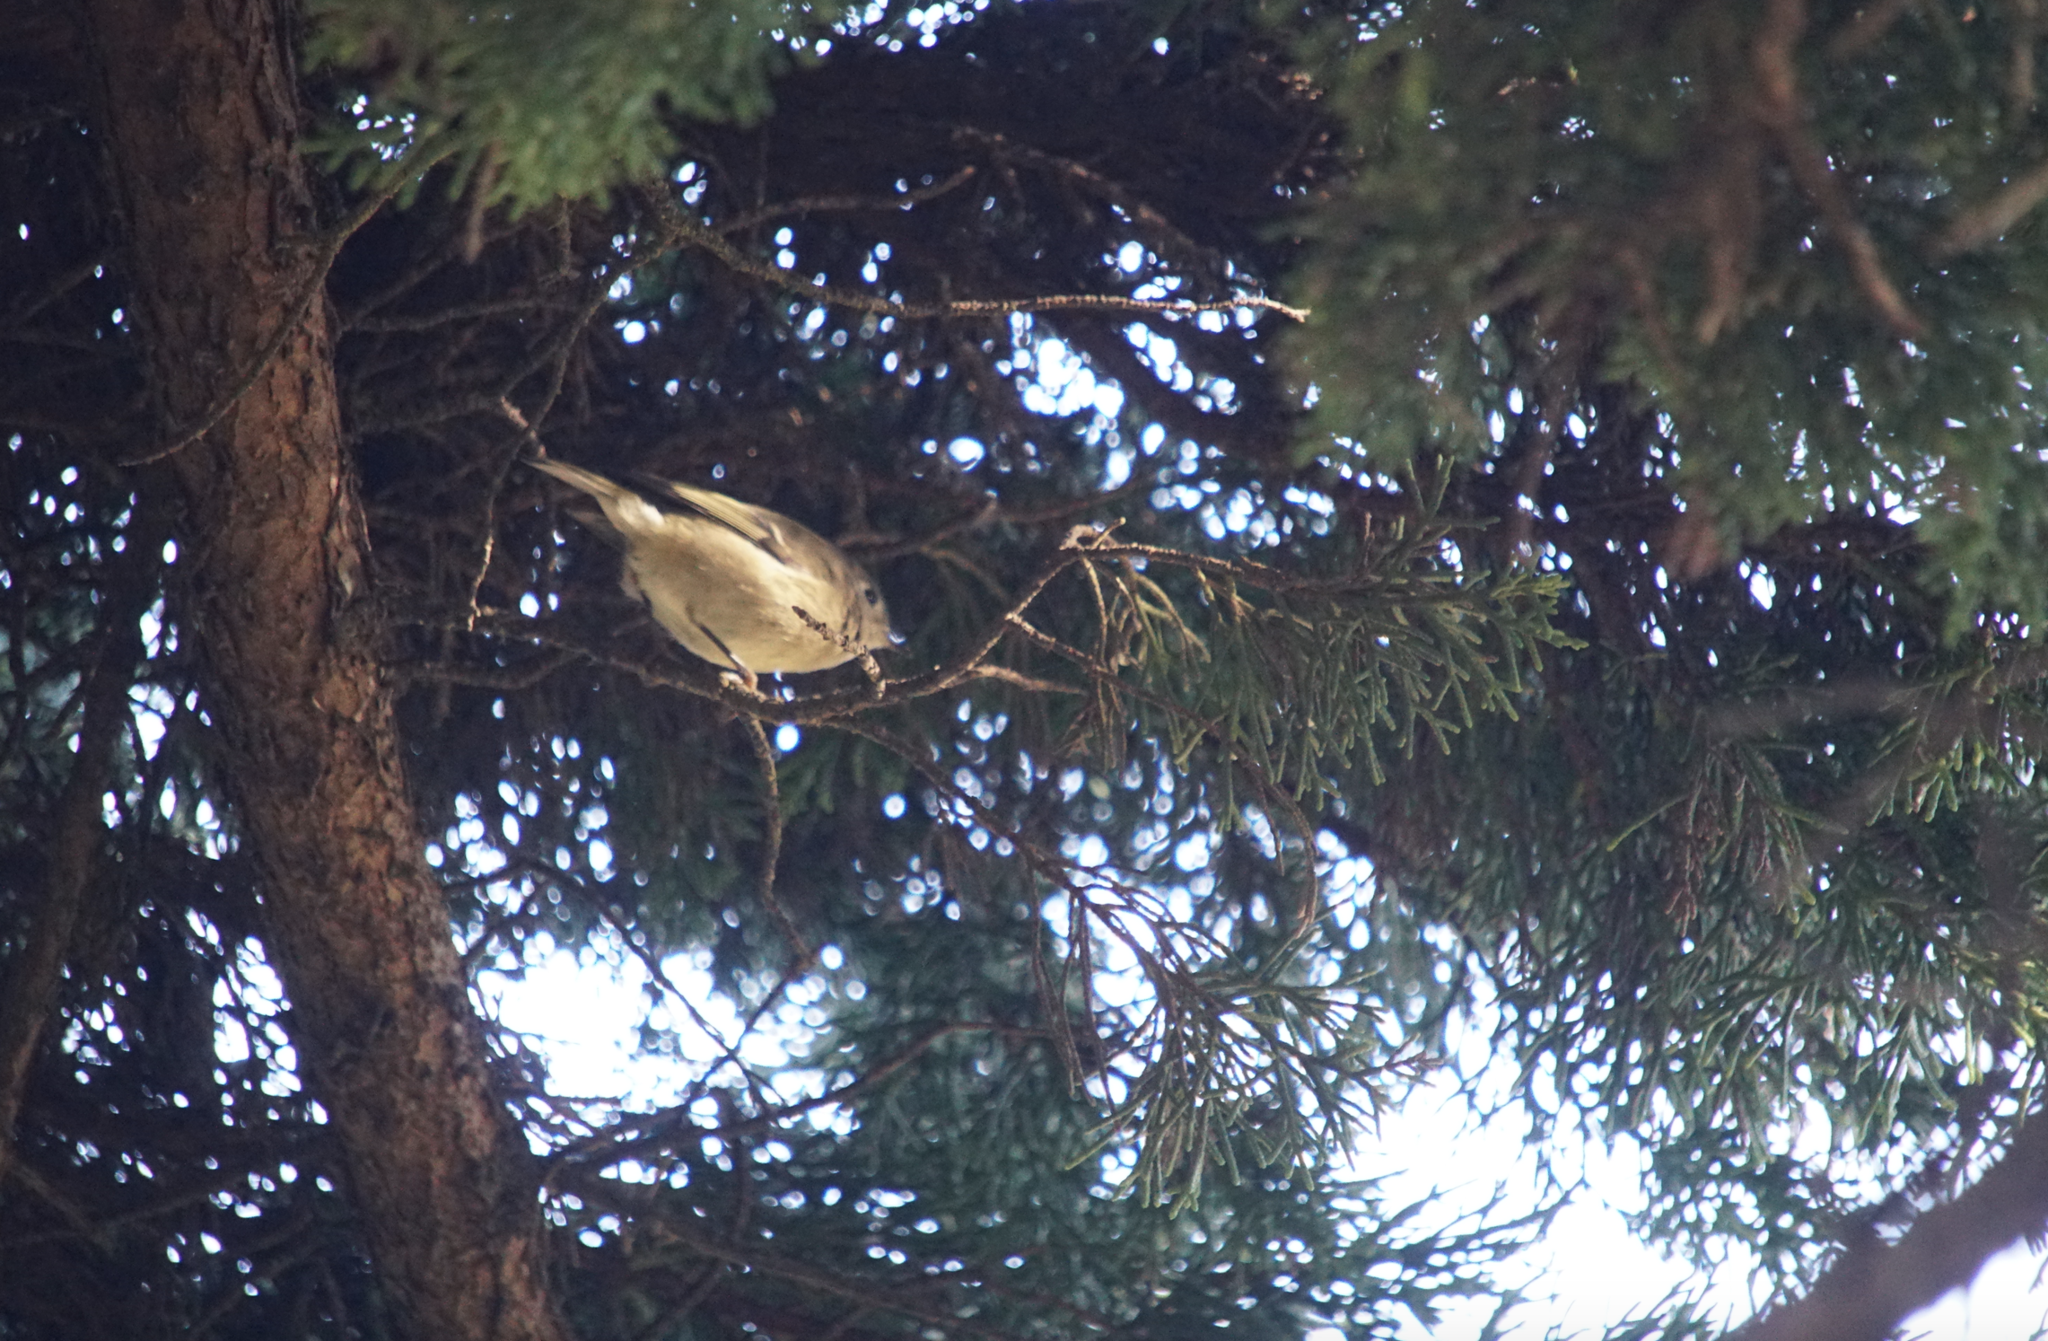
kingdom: Animalia
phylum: Chordata
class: Aves
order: Passeriformes
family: Regulidae
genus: Regulus
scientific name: Regulus calendula
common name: Ruby-crowned kinglet
